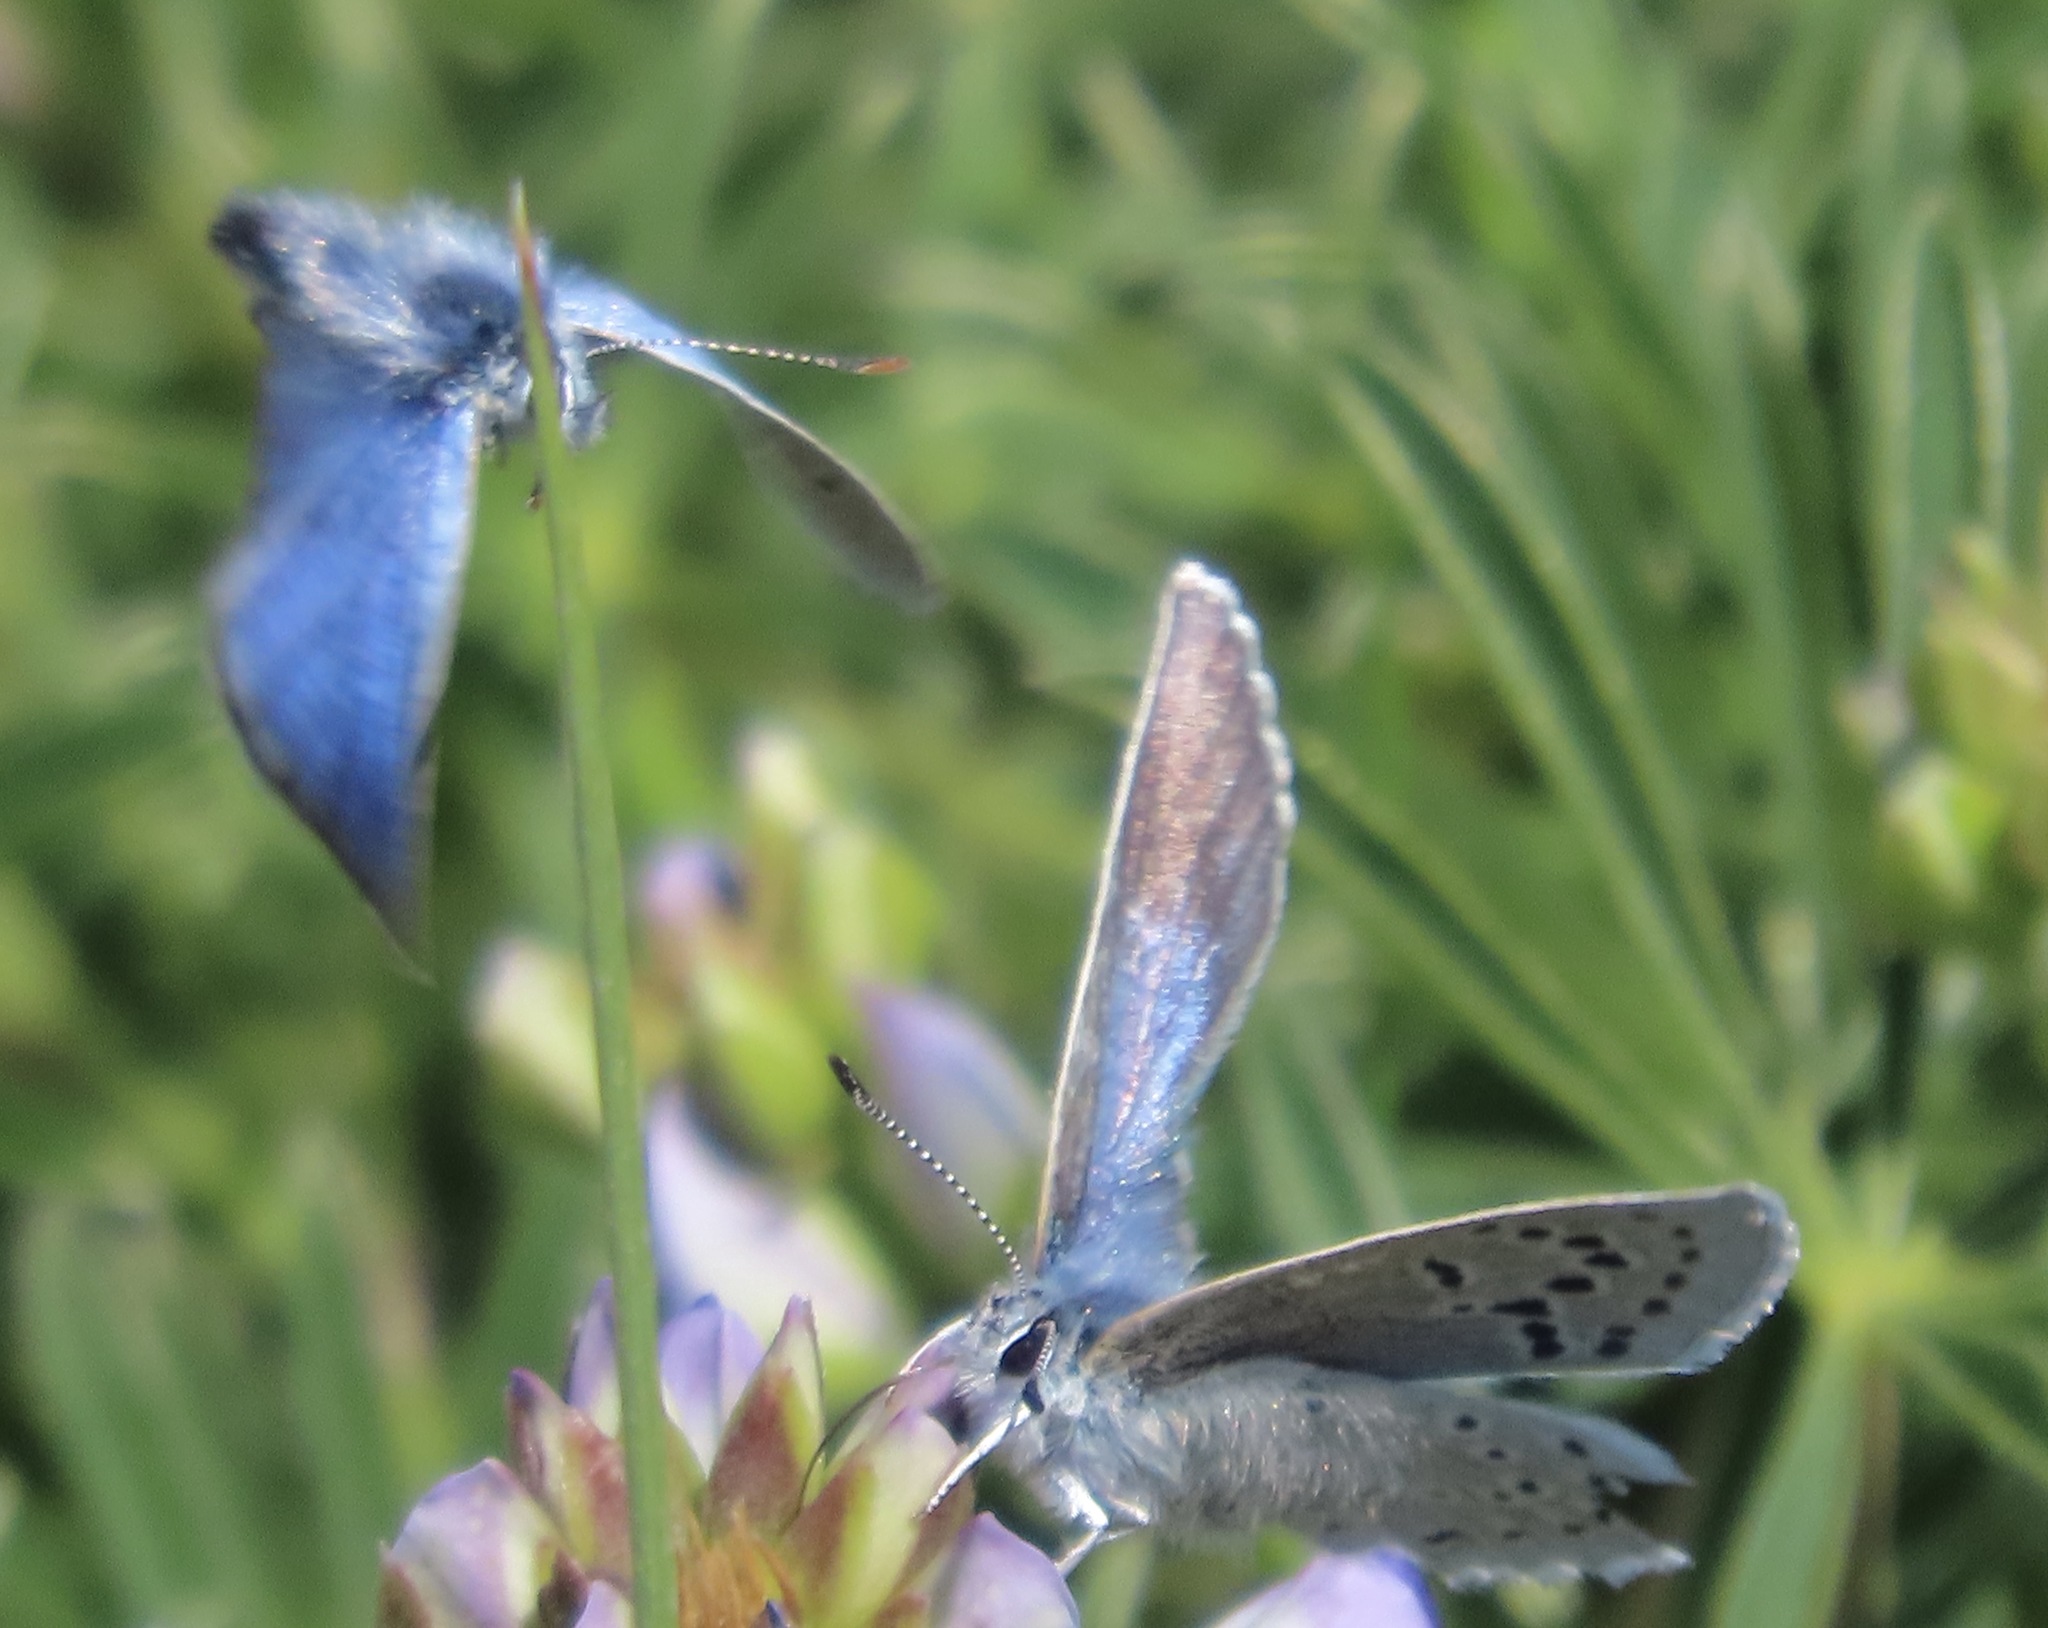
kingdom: Animalia
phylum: Arthropoda
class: Insecta
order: Lepidoptera
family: Lycaenidae
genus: Icaricia
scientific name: Icaricia icarioides
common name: Boisduval's blue
